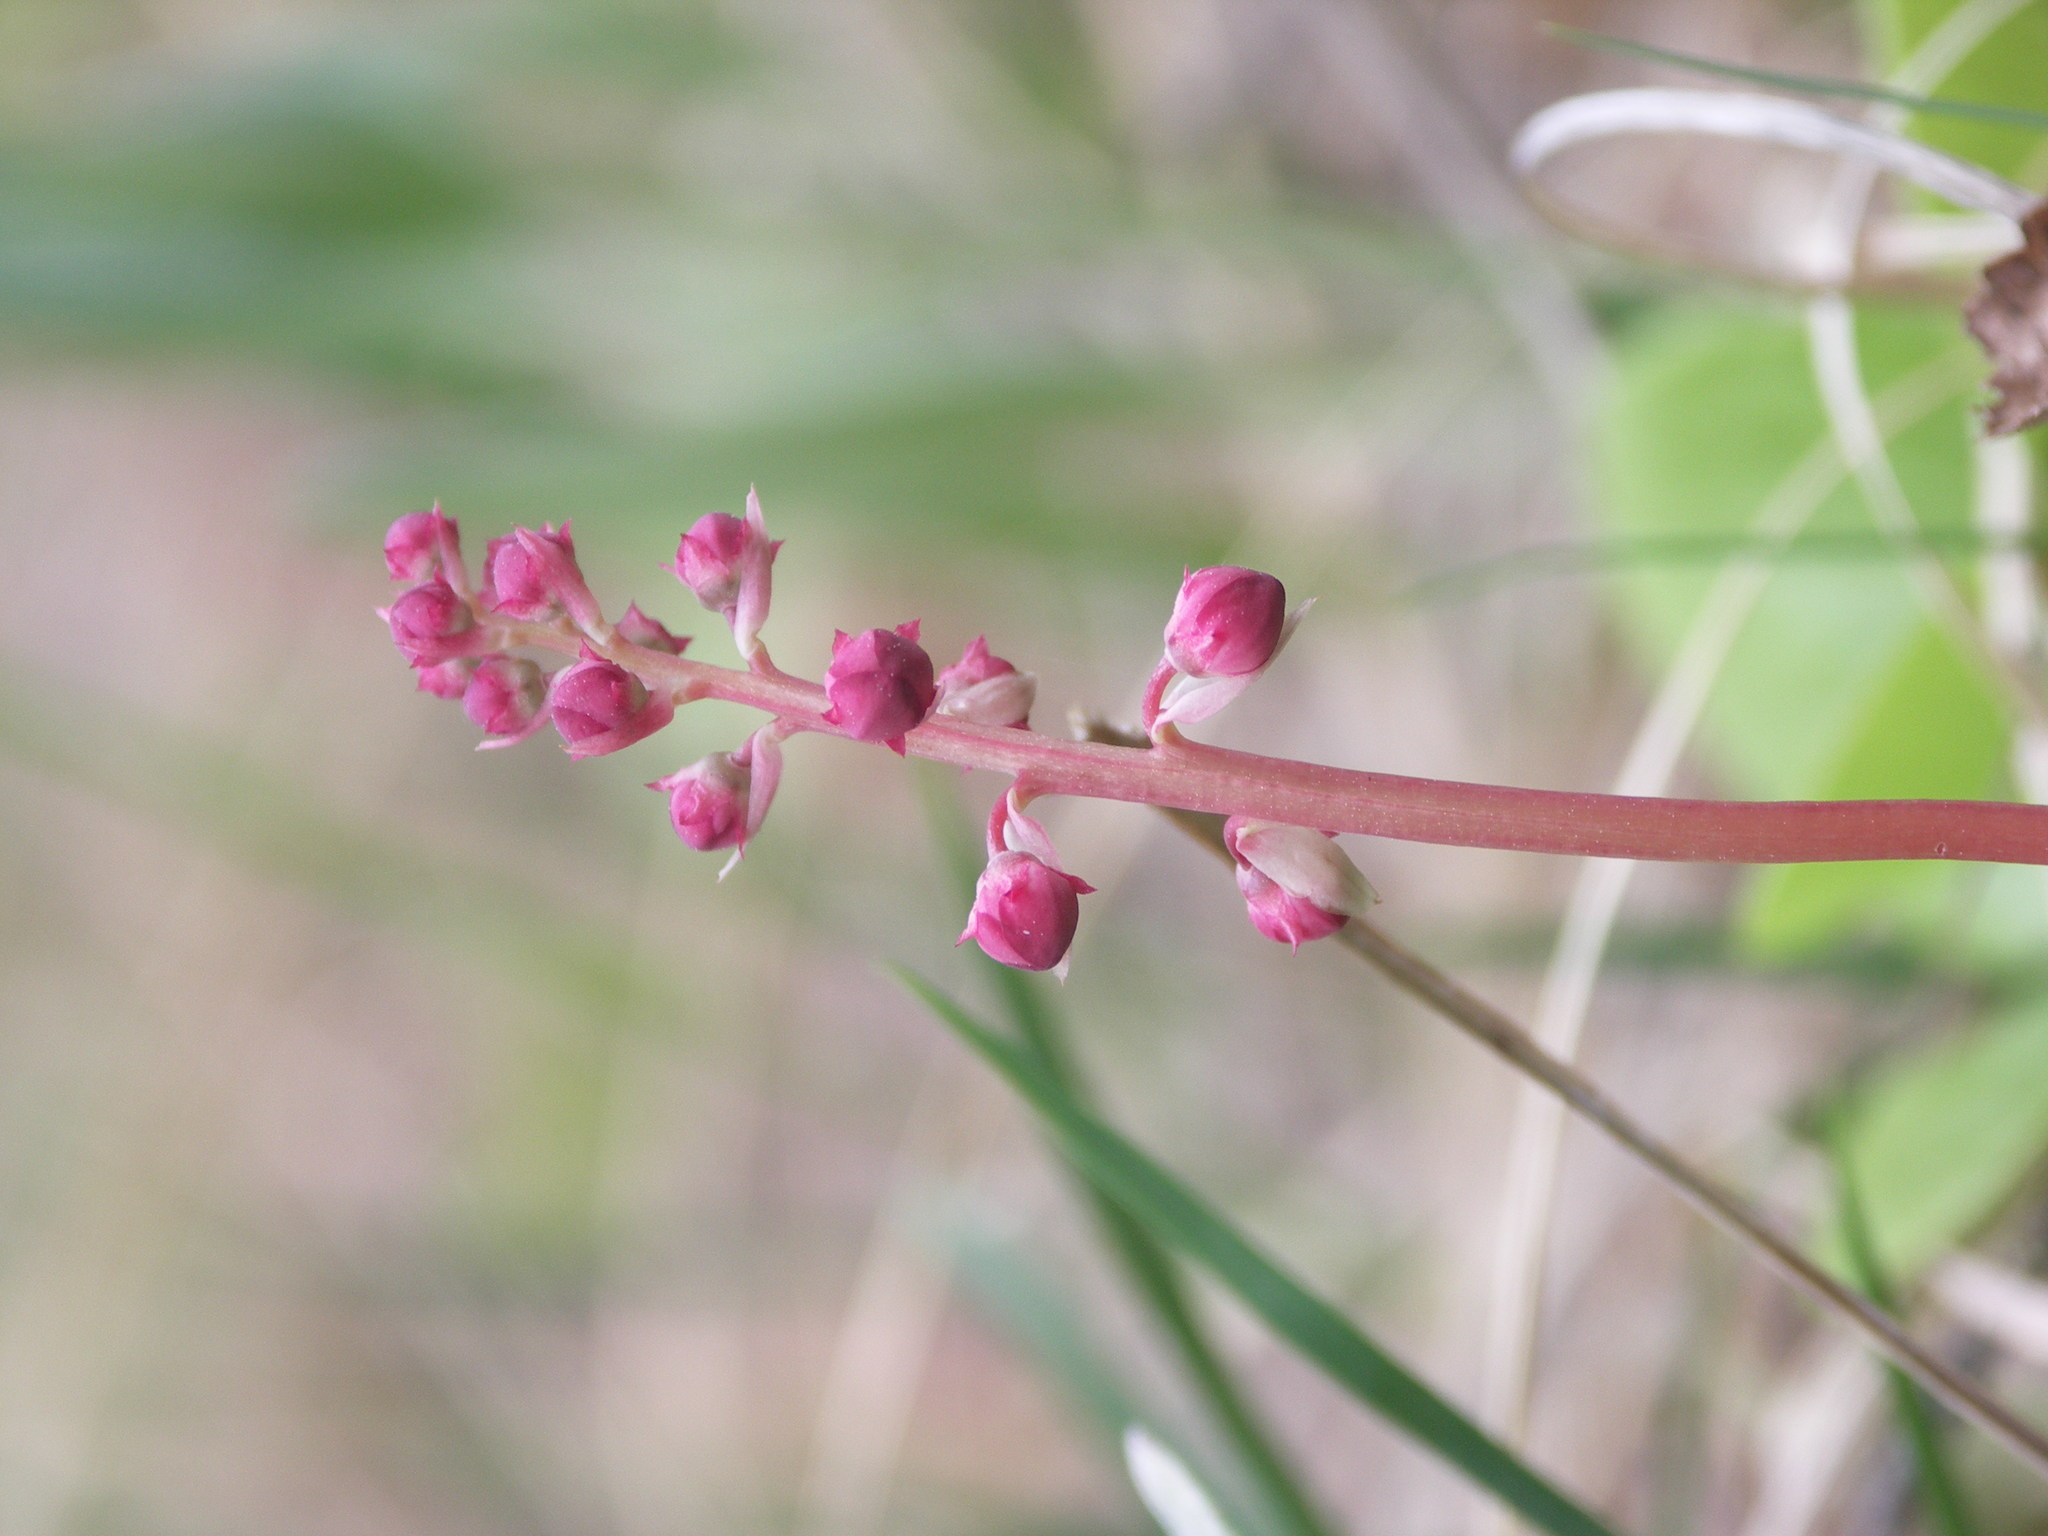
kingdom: Plantae
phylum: Tracheophyta
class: Magnoliopsida
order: Ericales
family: Ericaceae
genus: Pyrola
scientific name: Pyrola asarifolia
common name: Bog wintergreen
